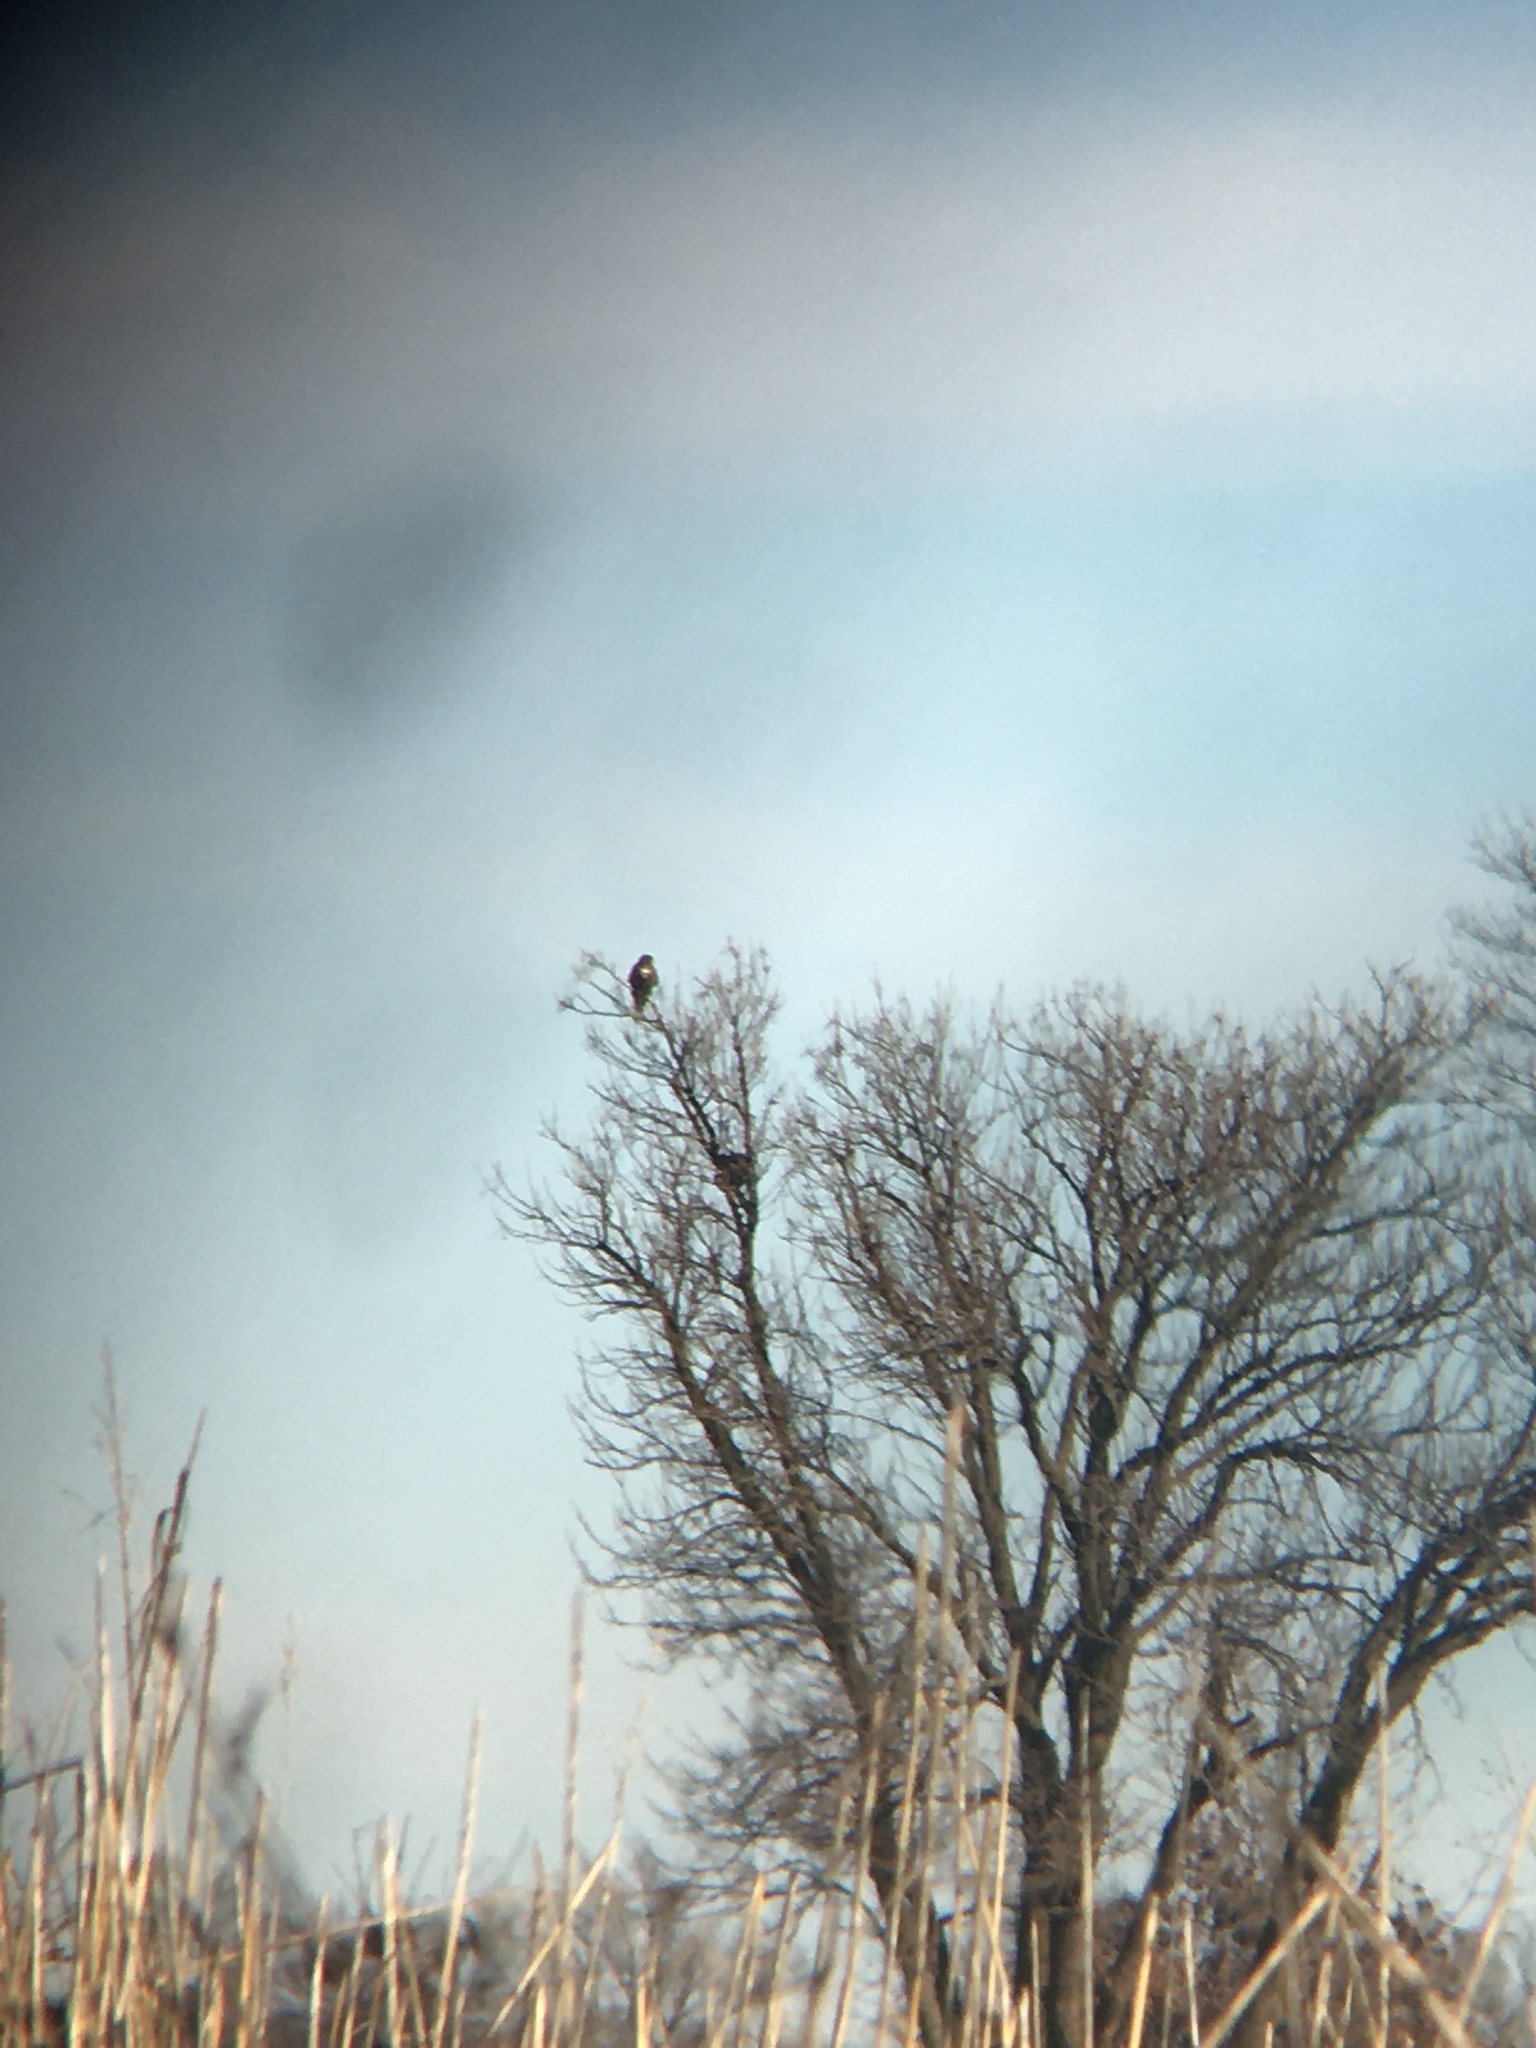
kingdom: Animalia
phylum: Chordata
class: Aves
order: Accipitriformes
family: Accipitridae
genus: Haliaeetus
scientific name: Haliaeetus leucocephalus
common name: Bald eagle
